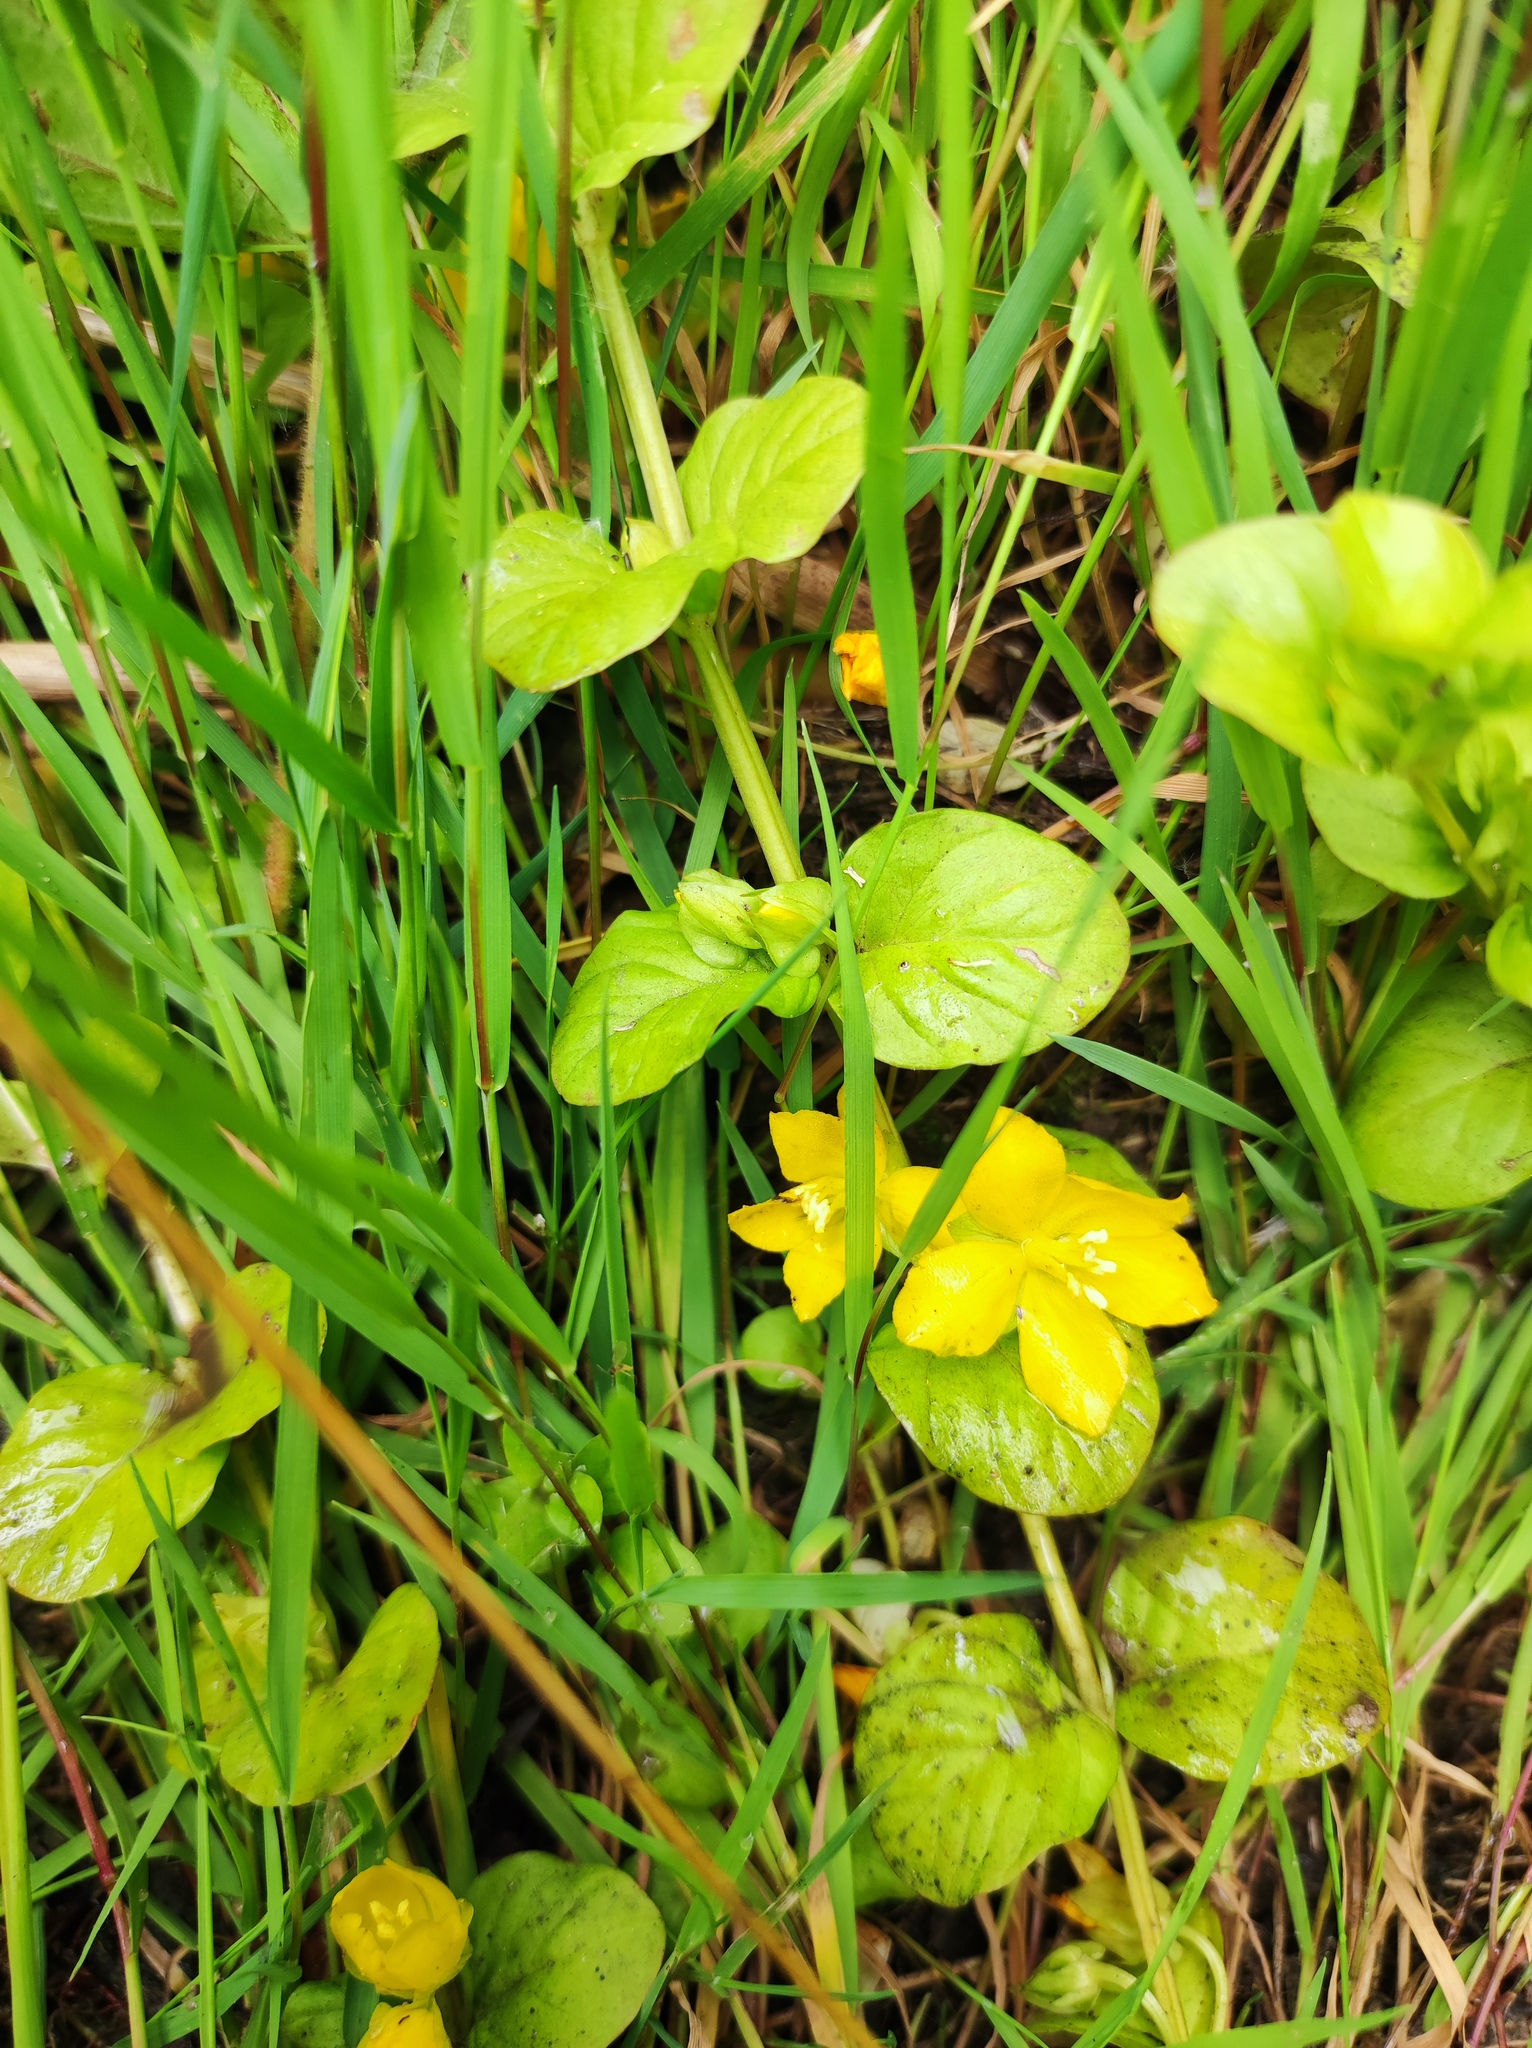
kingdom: Plantae
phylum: Tracheophyta
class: Magnoliopsida
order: Ericales
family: Primulaceae
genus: Lysimachia
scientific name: Lysimachia nummularia
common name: Moneywort
